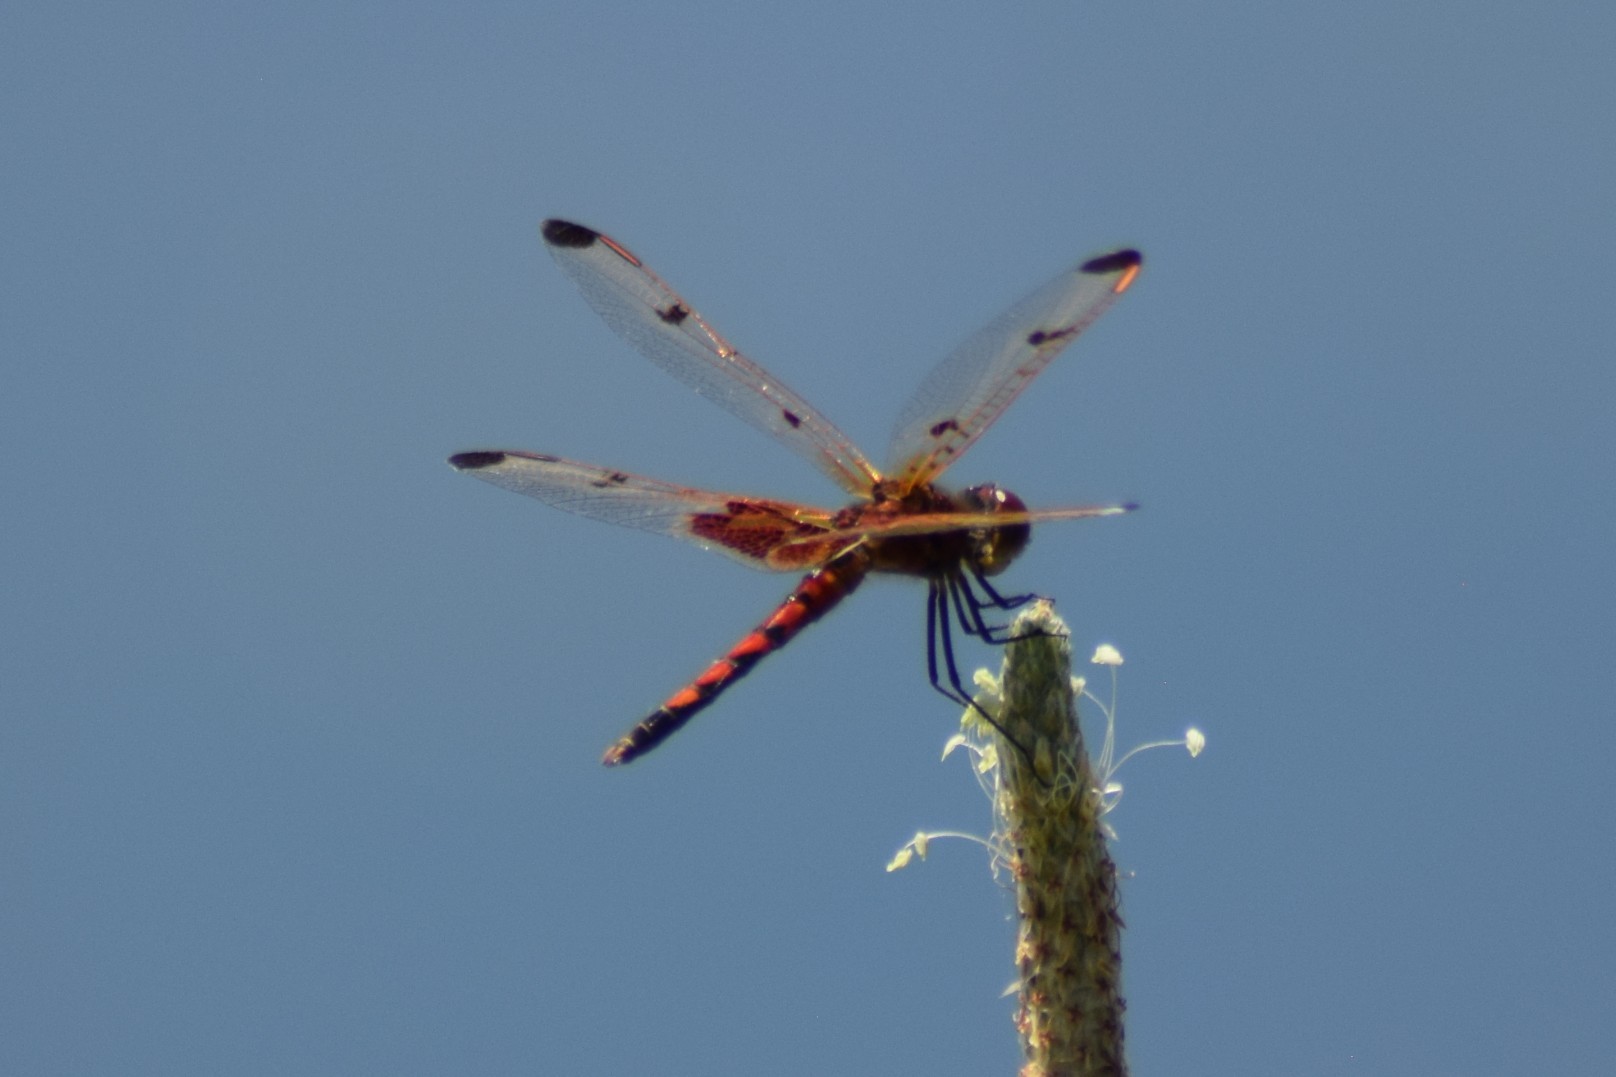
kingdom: Animalia
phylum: Arthropoda
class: Insecta
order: Odonata
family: Libellulidae
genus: Celithemis
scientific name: Celithemis elisa
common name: Calico pennant
